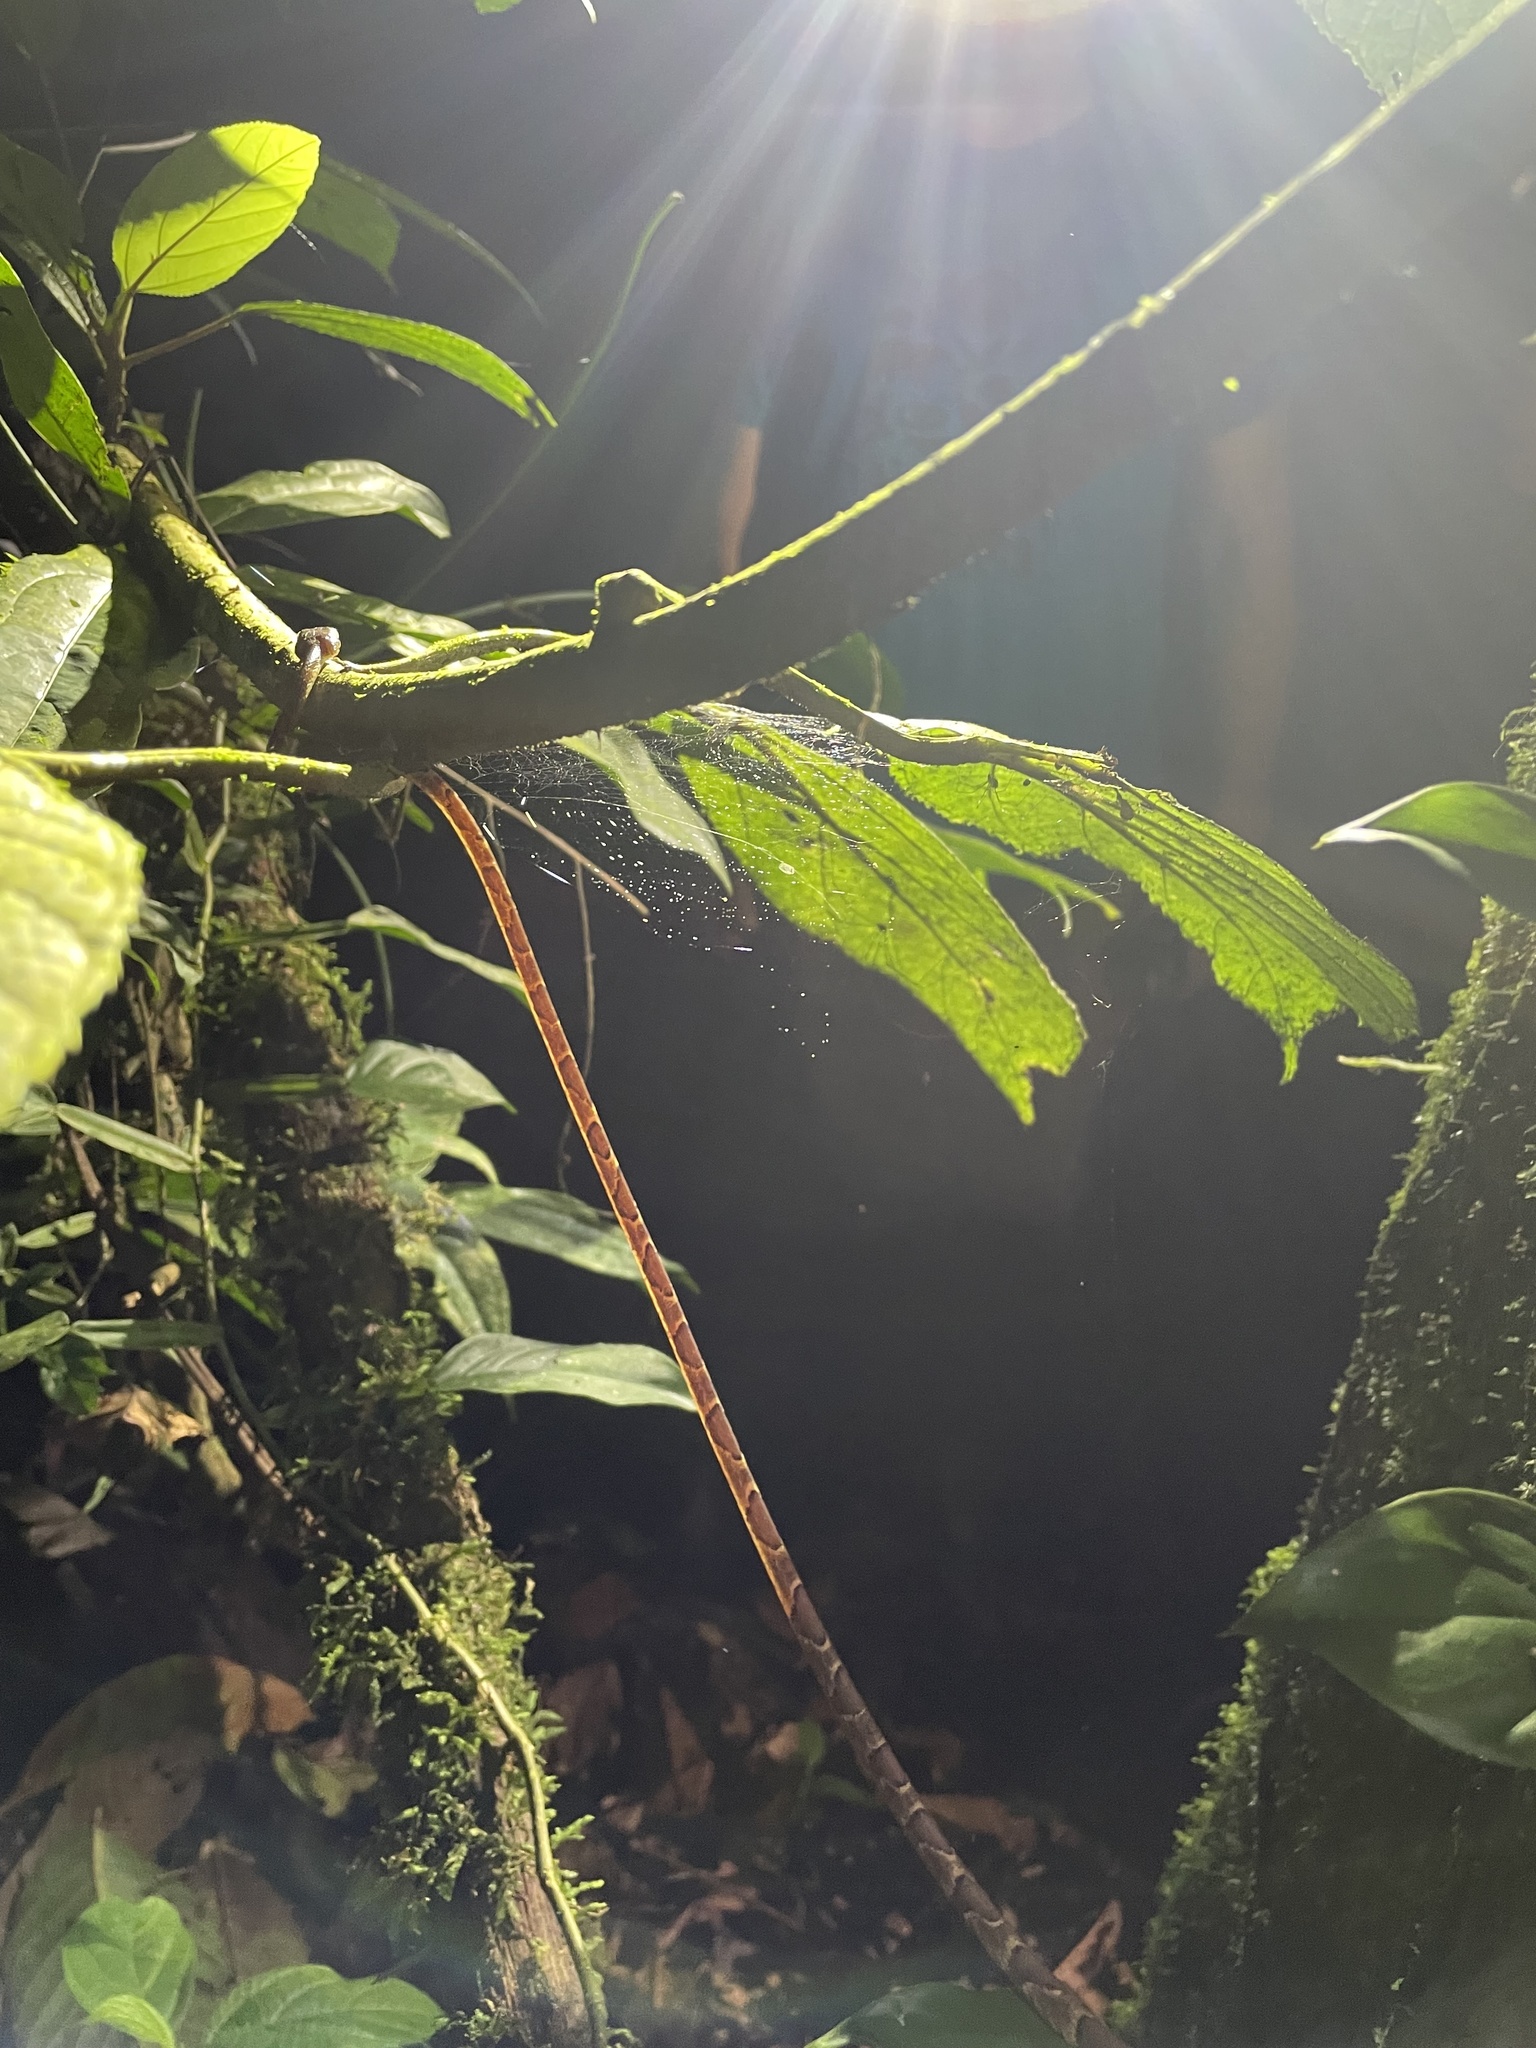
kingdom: Animalia
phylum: Chordata
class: Squamata
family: Colubridae
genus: Imantodes
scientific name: Imantodes cenchoa
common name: Blunthead tree snake
